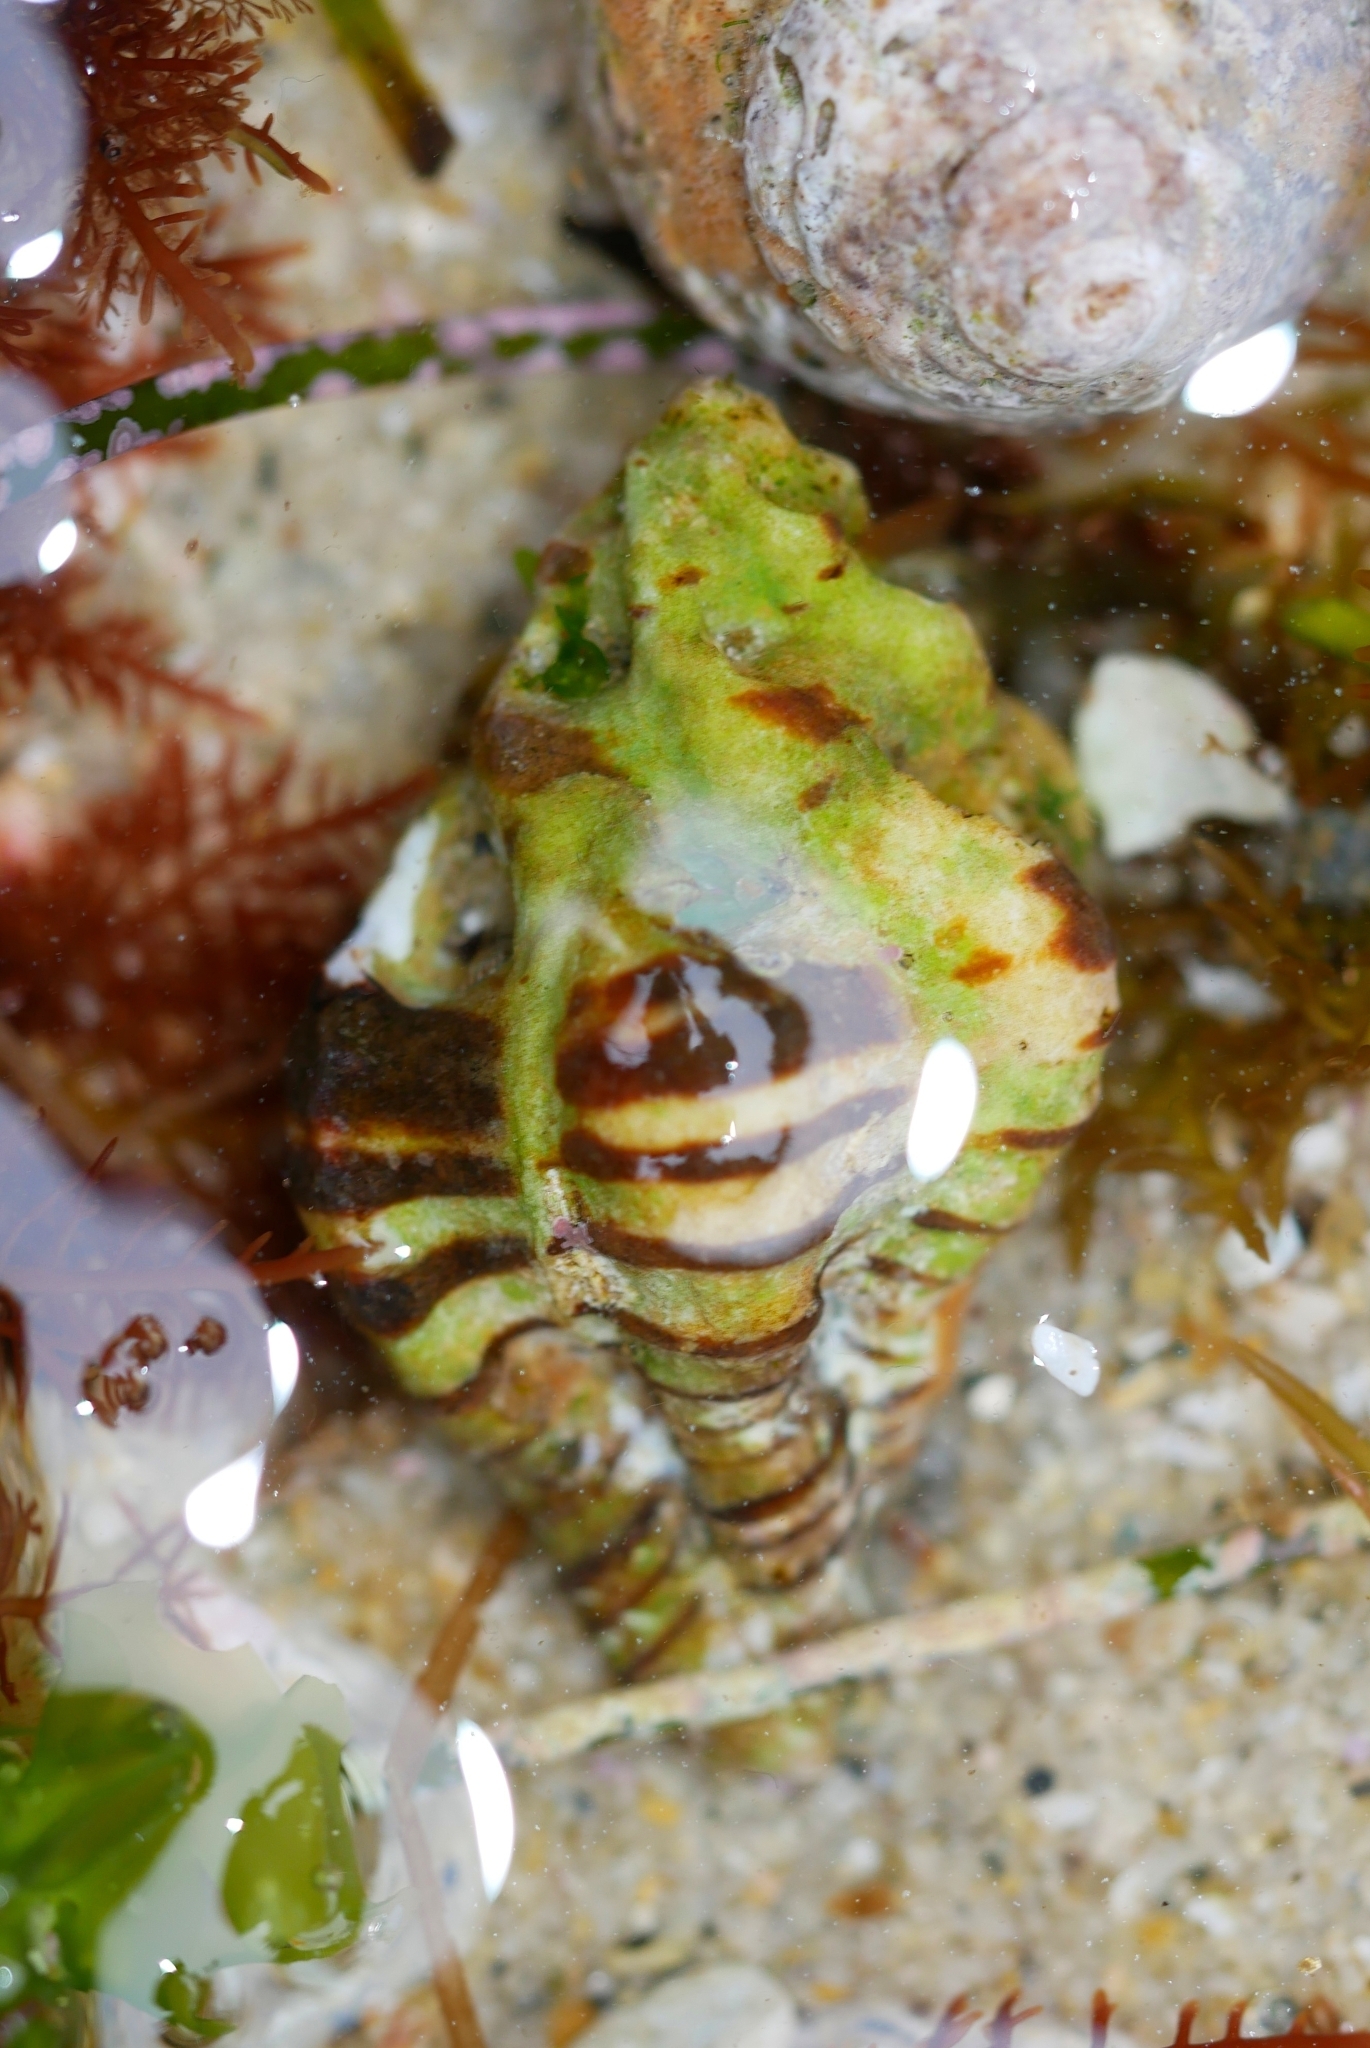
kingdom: Animalia
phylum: Mollusca
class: Gastropoda
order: Neogastropoda
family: Muricidae
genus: Maxwellia
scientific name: Maxwellia gemma
